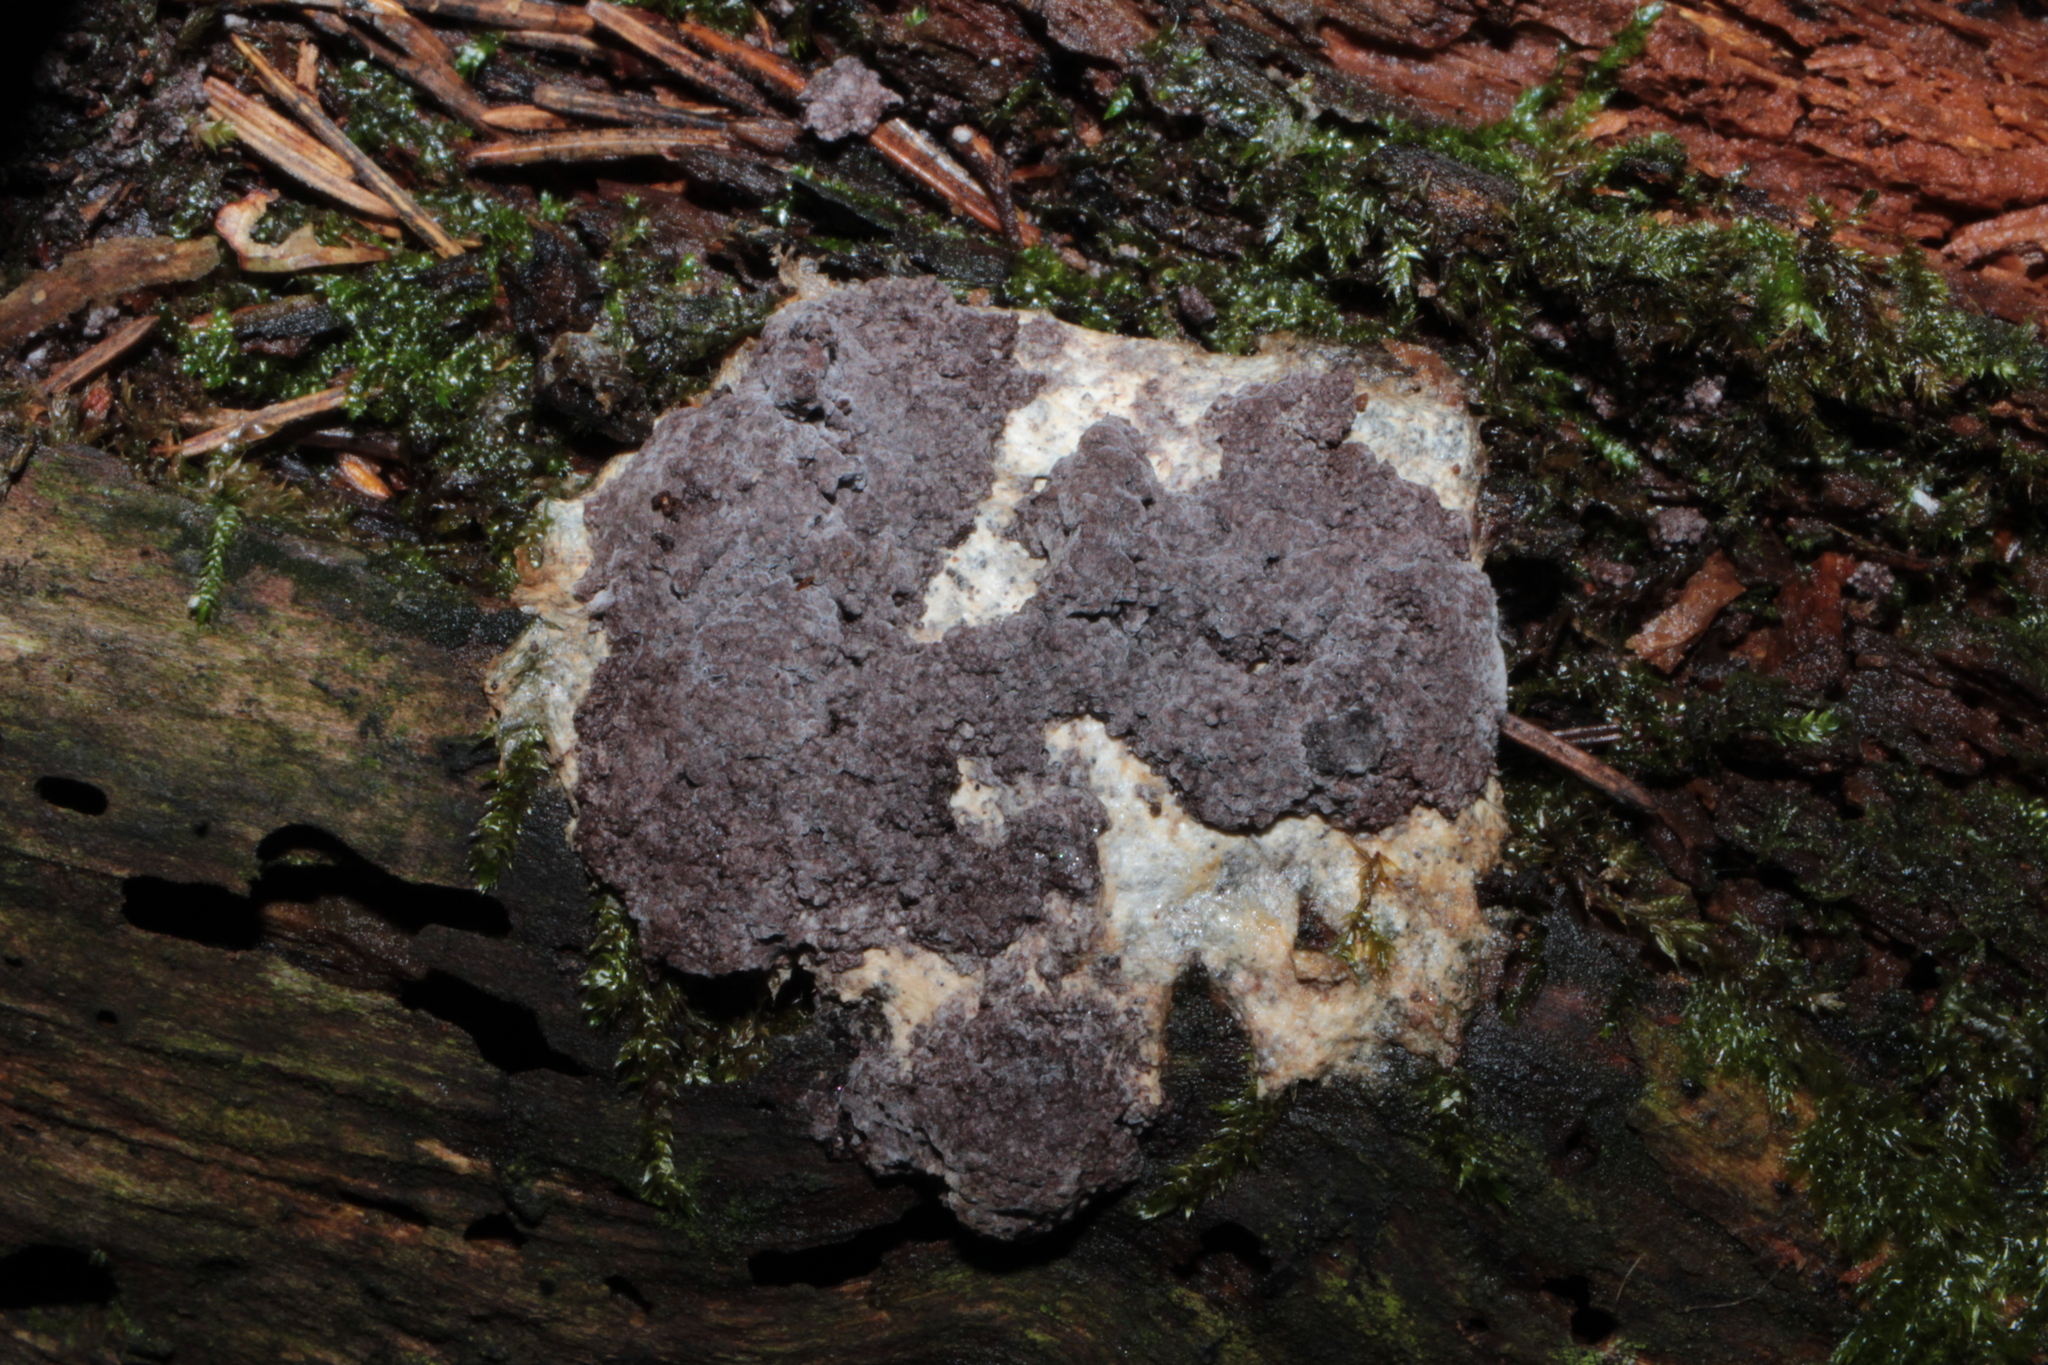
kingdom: Fungi
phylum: Ascomycota
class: Sordariomycetes
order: Hypocreales
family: Bionectriaceae
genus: Nectriopsis
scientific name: Nectriopsis violacea
